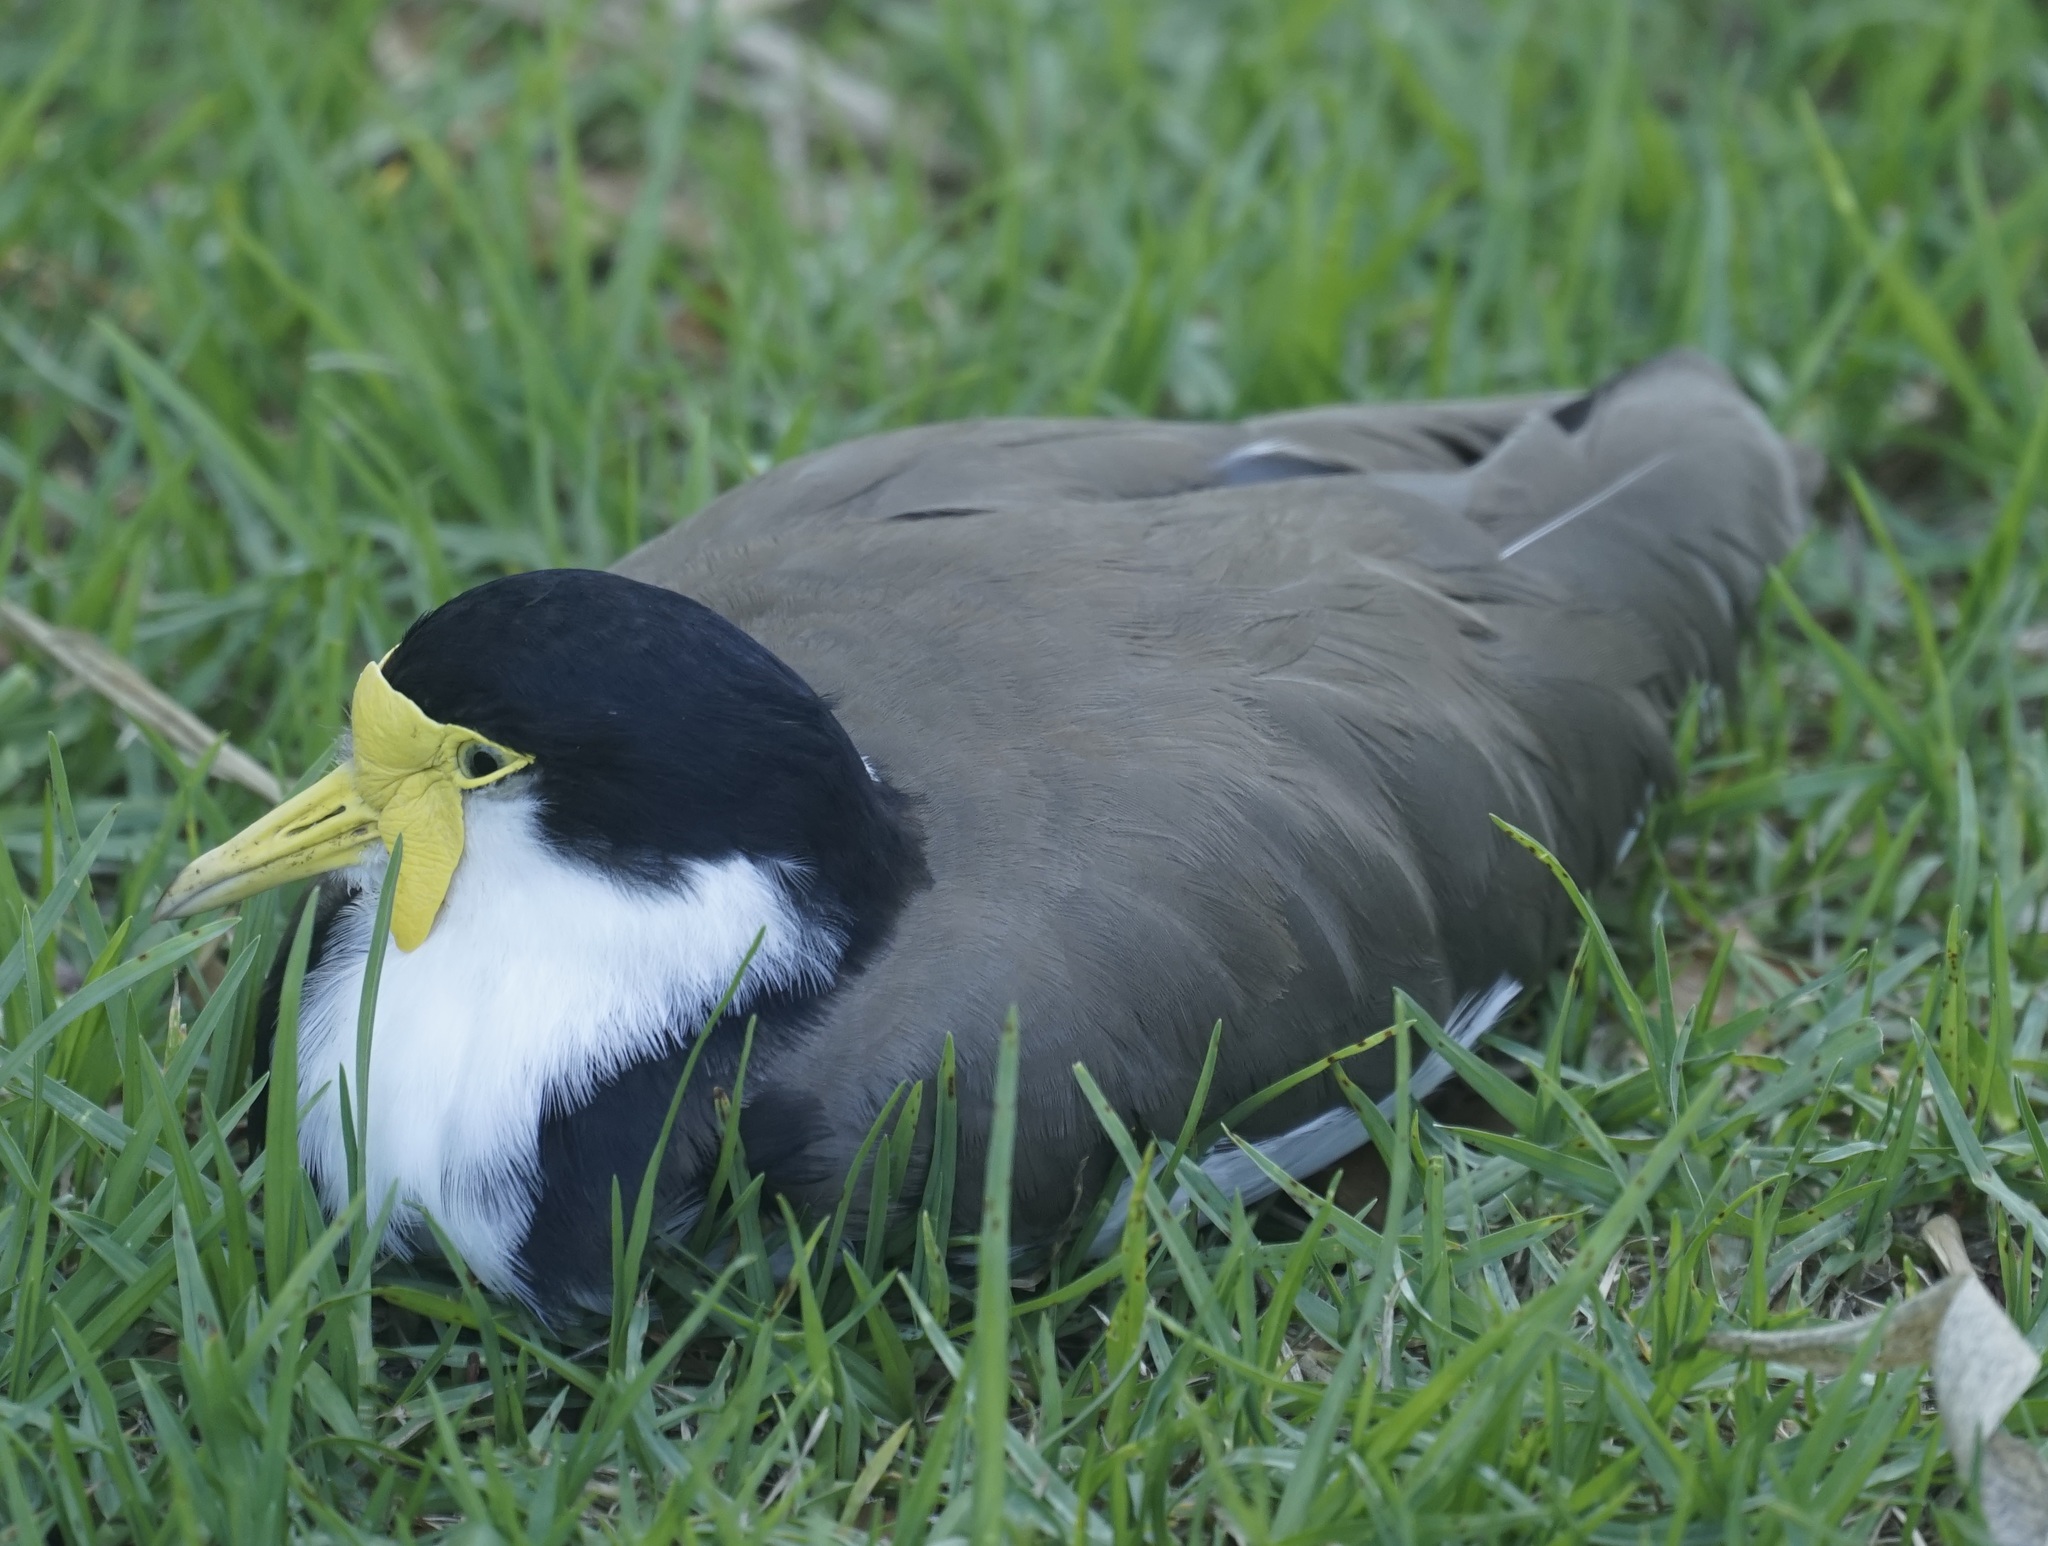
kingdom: Animalia
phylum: Chordata
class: Aves
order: Charadriiformes
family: Charadriidae
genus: Vanellus
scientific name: Vanellus miles
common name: Masked lapwing
